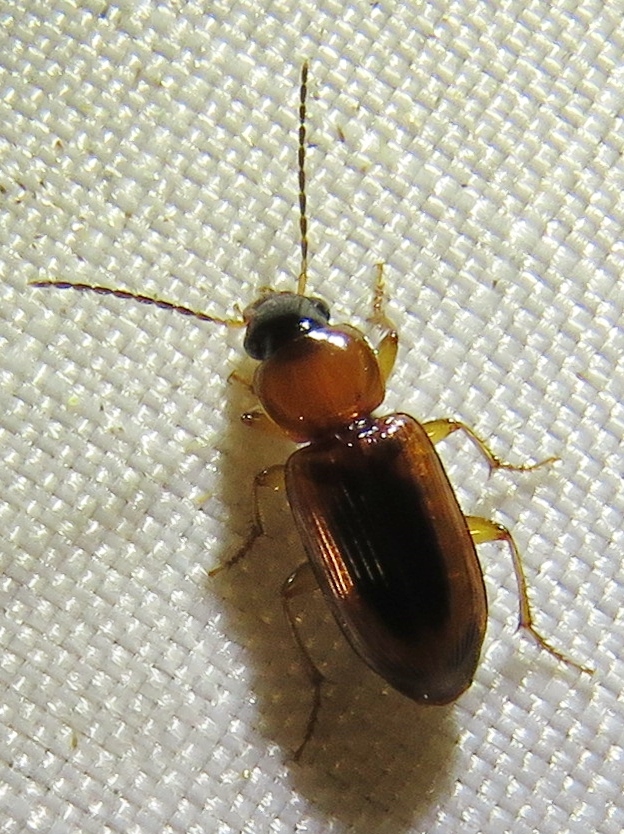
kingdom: Animalia
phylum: Arthropoda
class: Insecta
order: Coleoptera
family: Carabidae
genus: Stenolophus
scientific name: Stenolophus dissimilis
